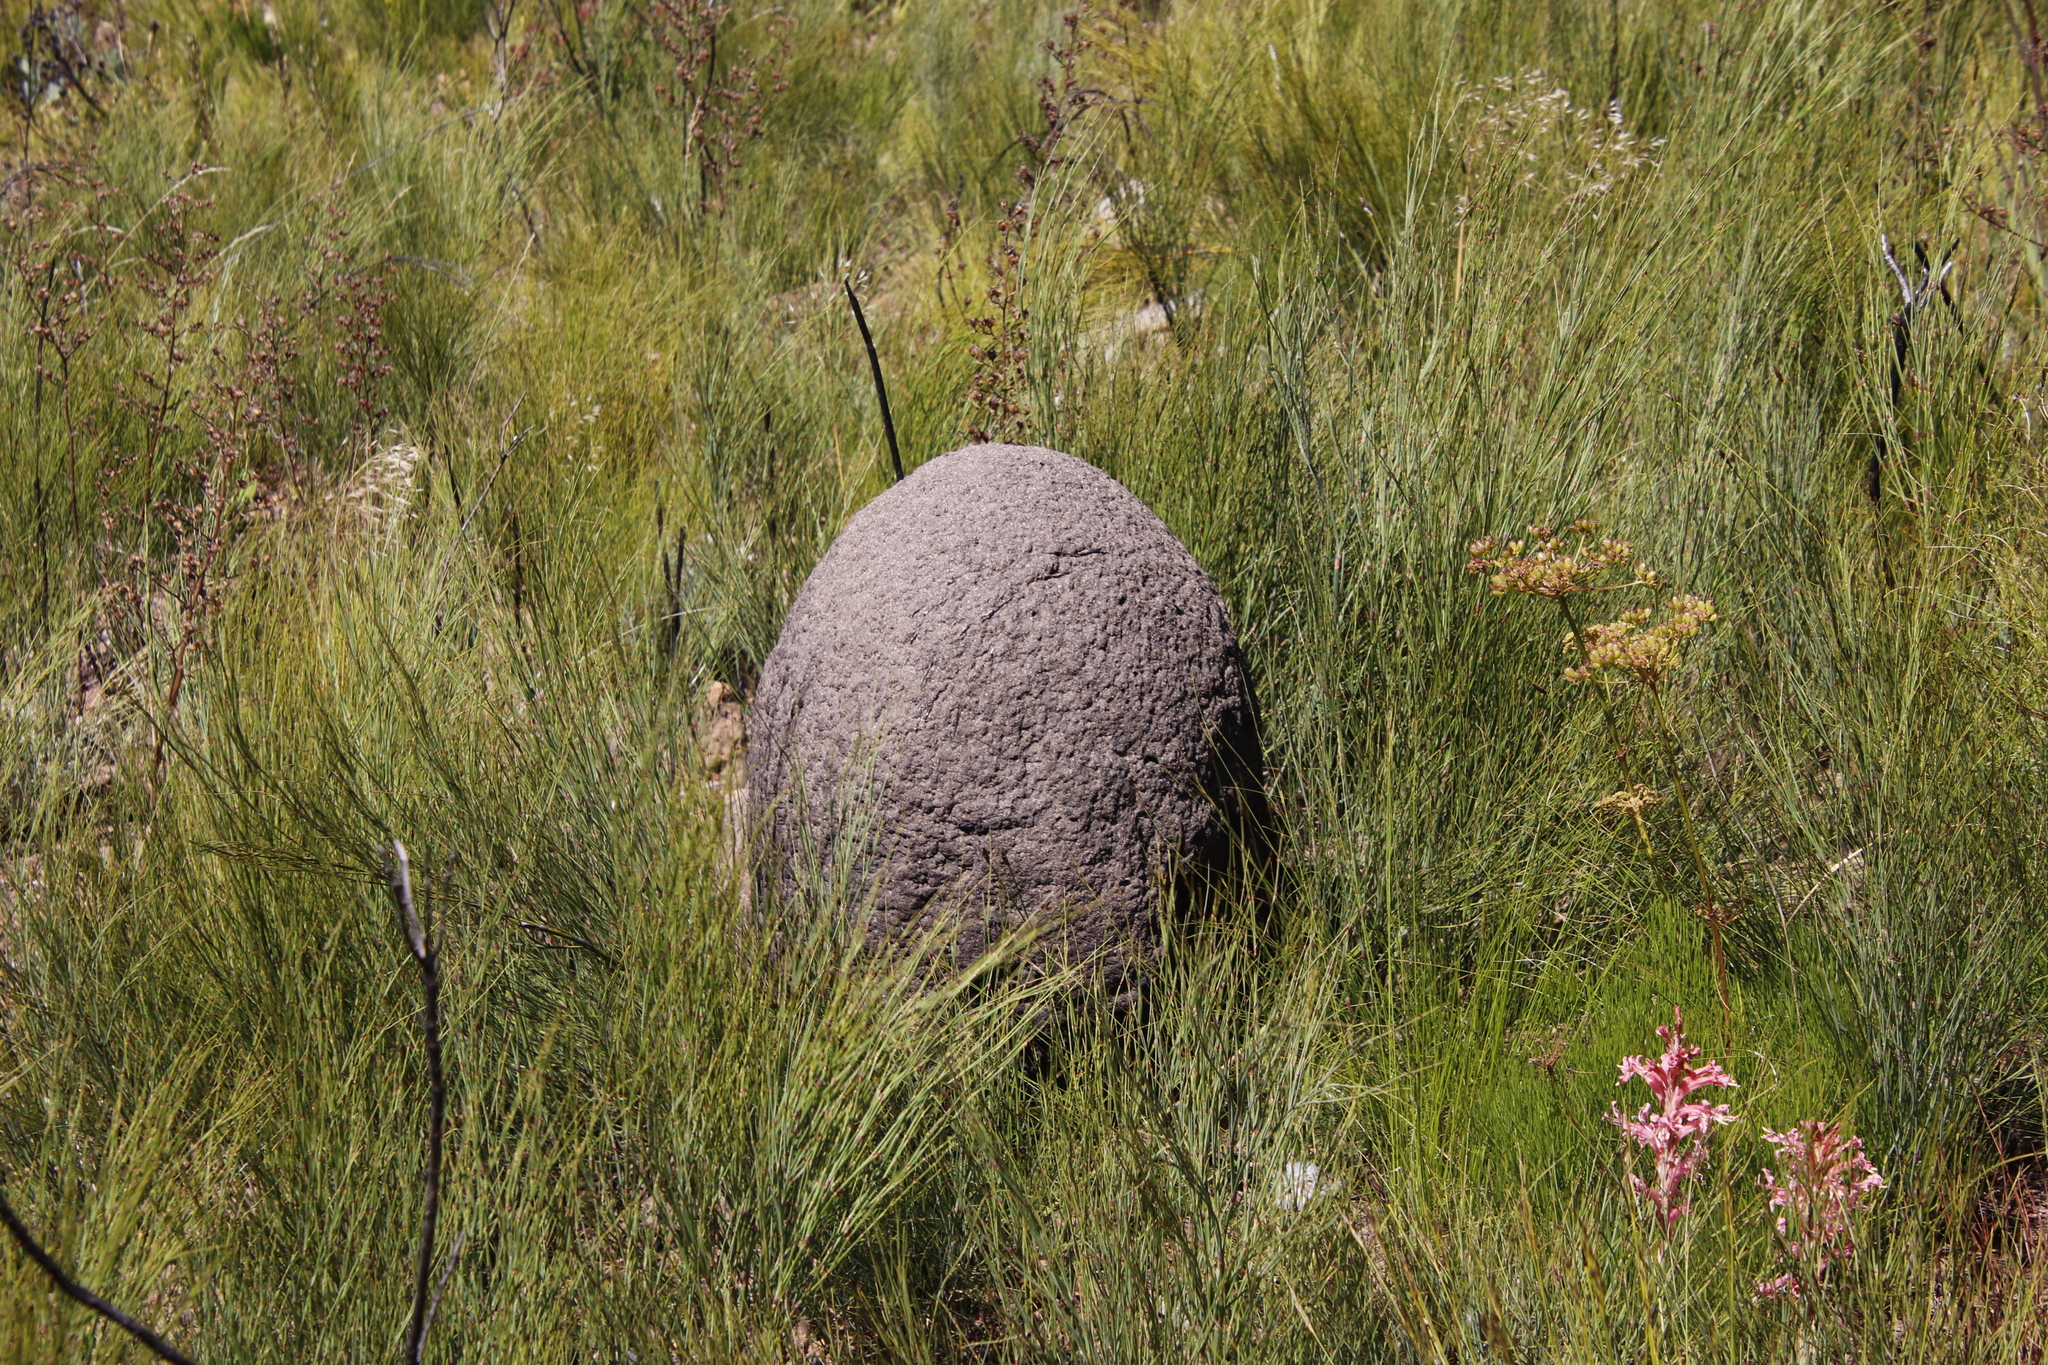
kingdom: Animalia
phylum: Arthropoda
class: Insecta
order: Blattodea
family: Termitidae
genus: Amitermes
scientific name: Amitermes hastatus
